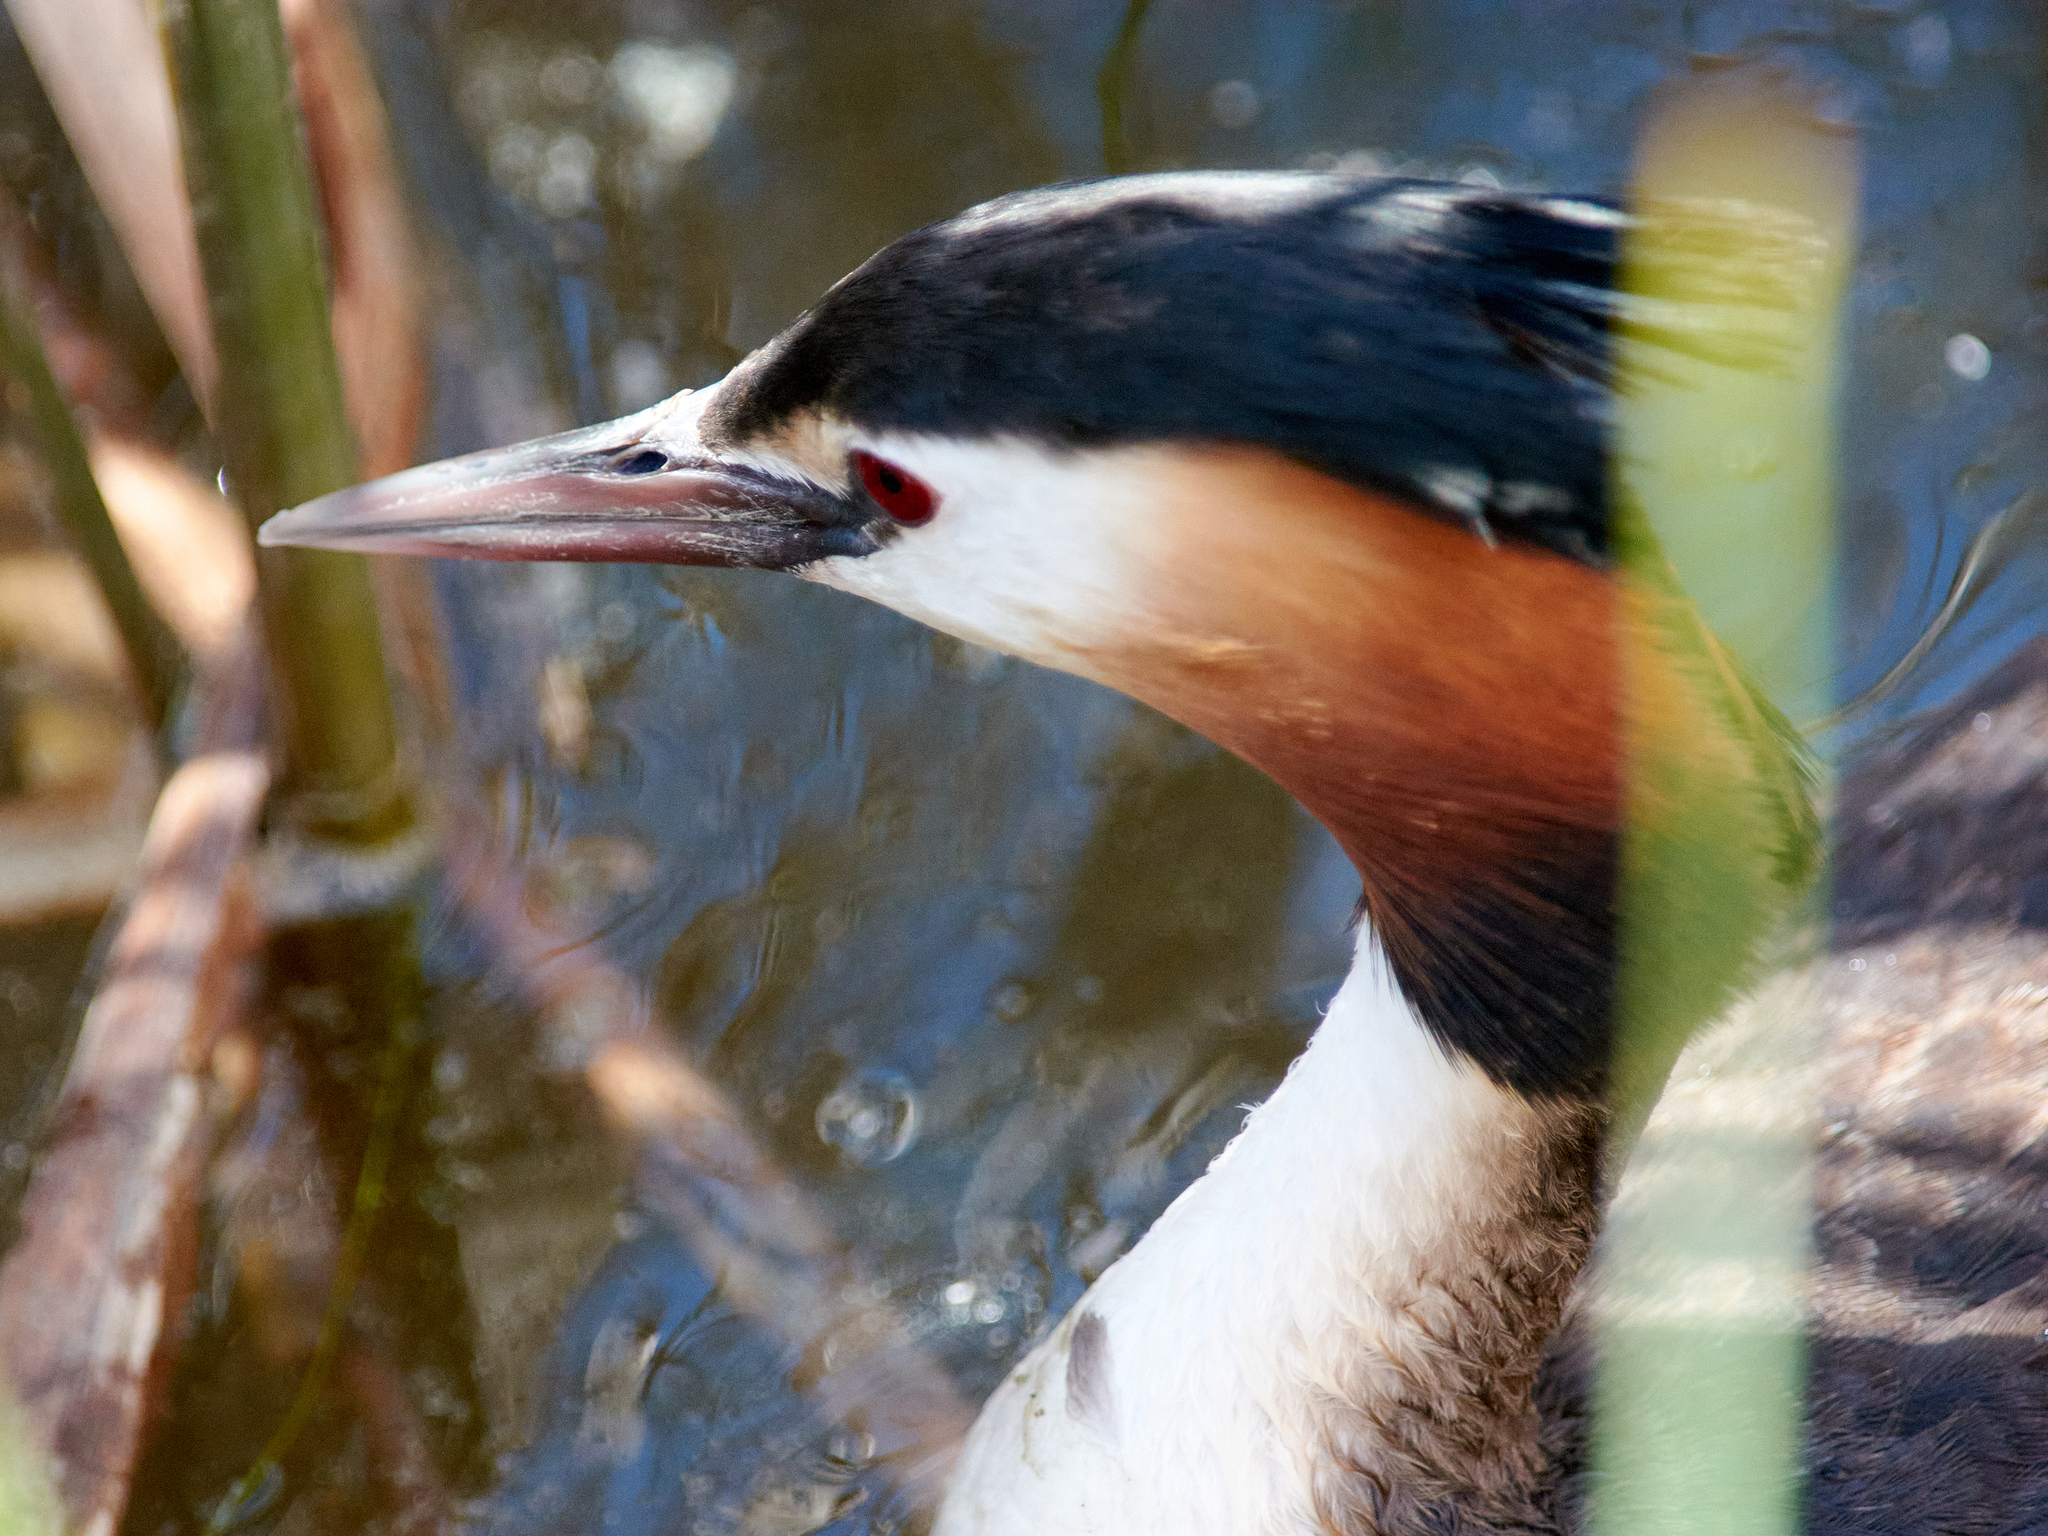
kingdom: Animalia
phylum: Chordata
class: Aves
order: Podicipediformes
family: Podicipedidae
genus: Podiceps
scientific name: Podiceps cristatus
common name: Great crested grebe
